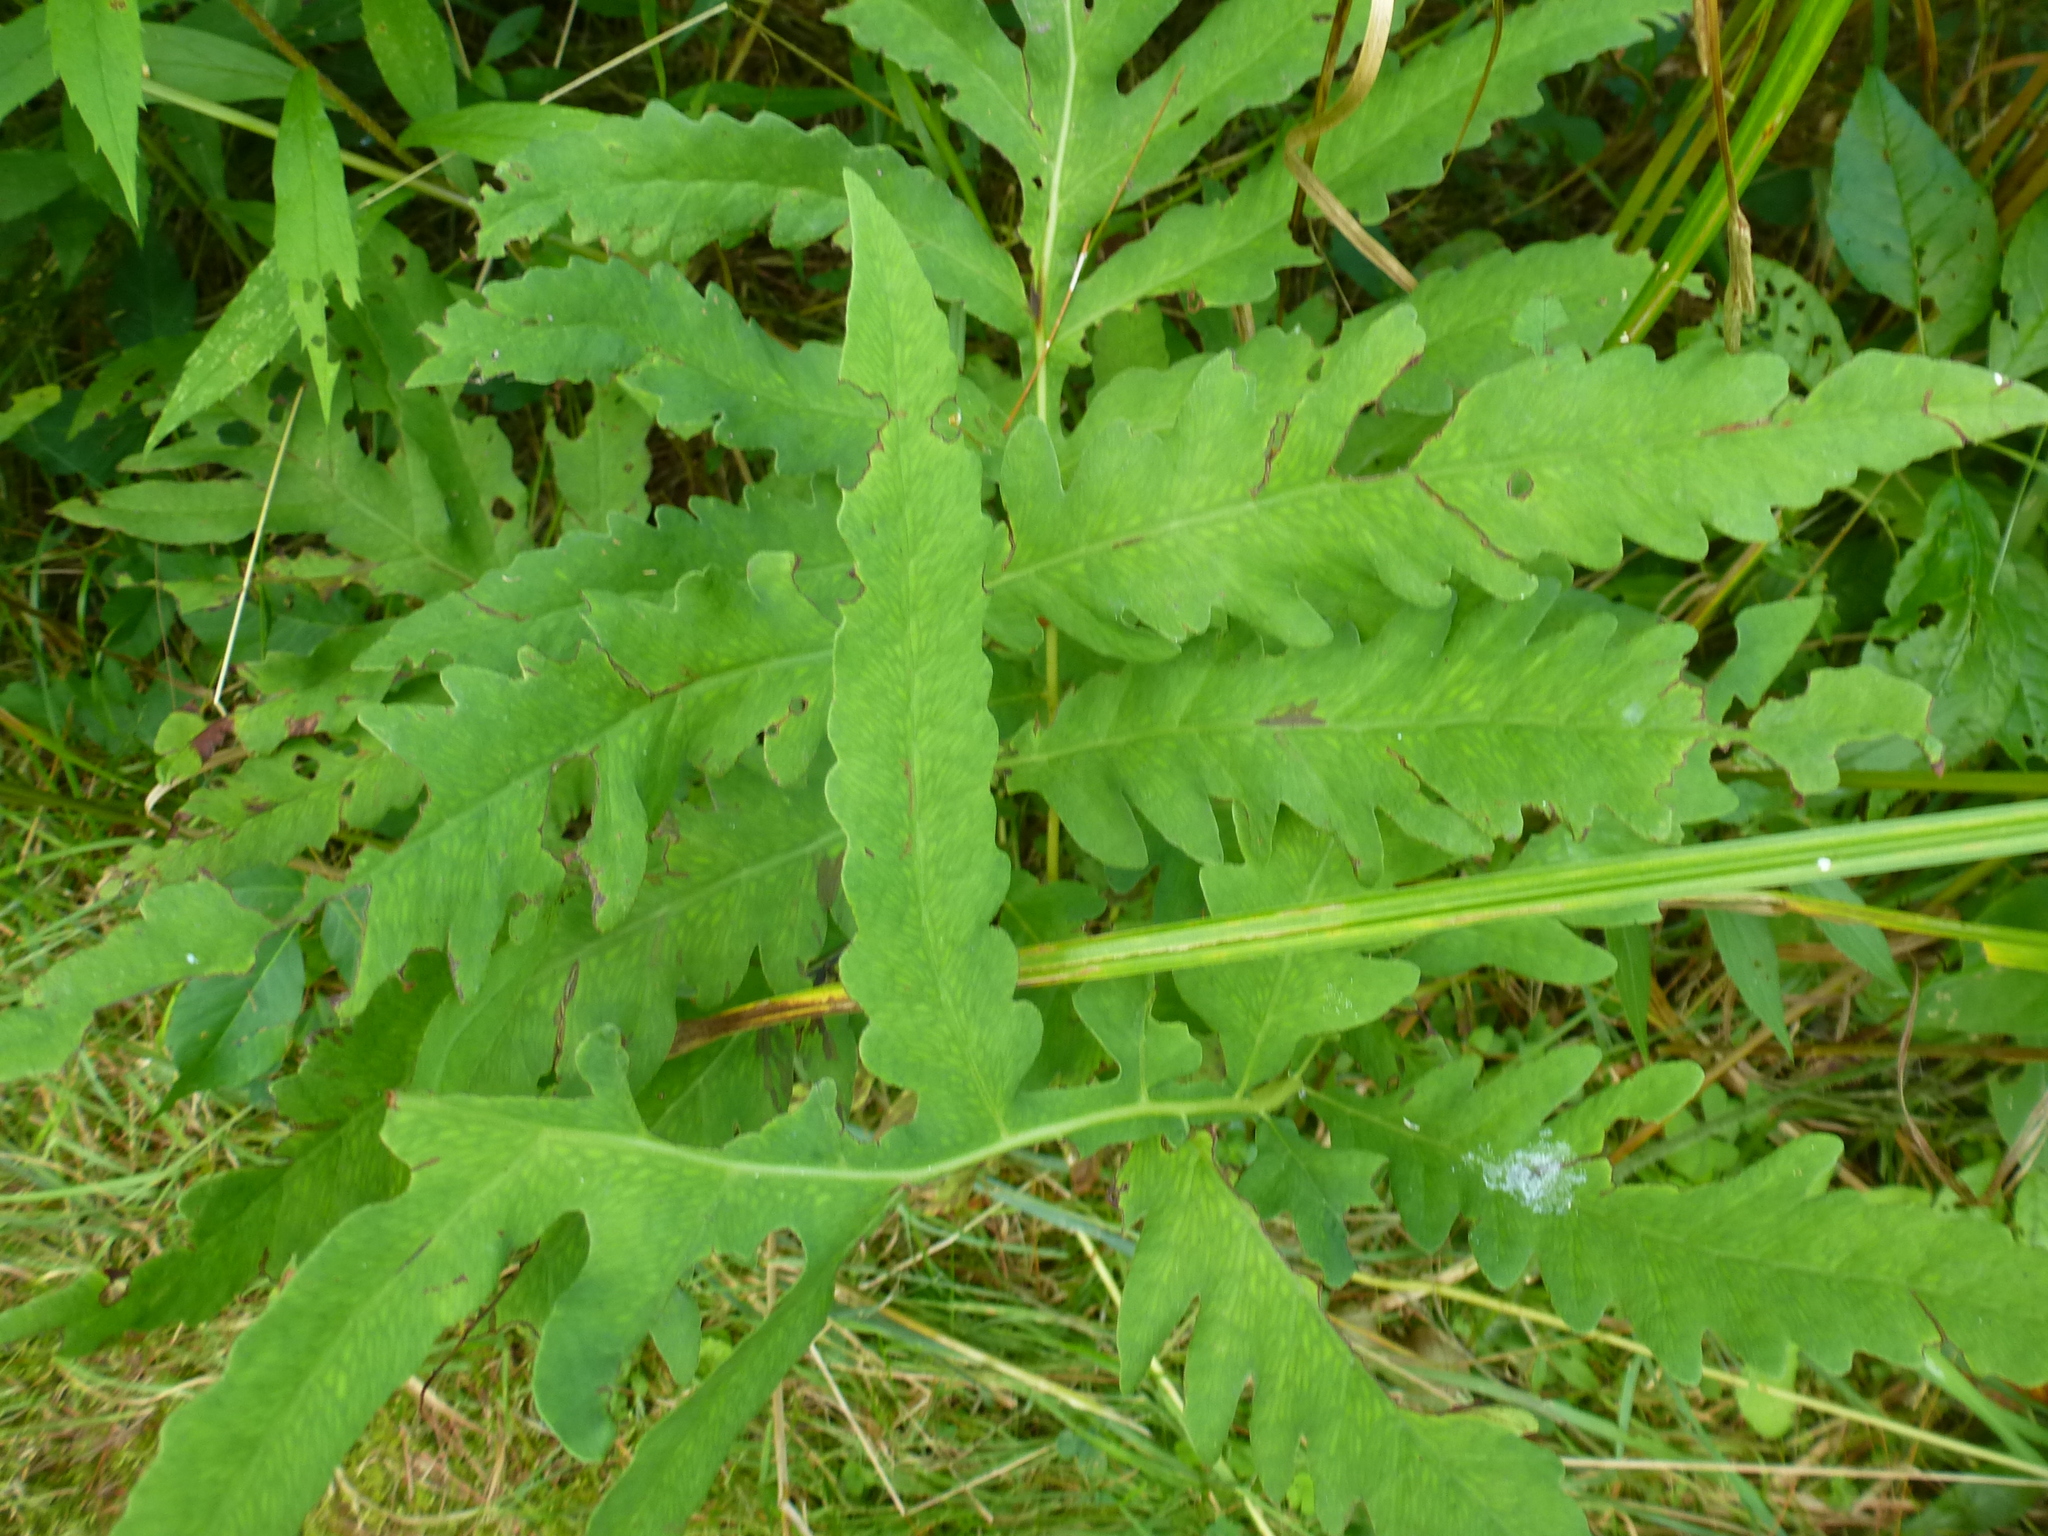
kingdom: Plantae
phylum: Tracheophyta
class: Polypodiopsida
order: Polypodiales
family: Onocleaceae
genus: Onoclea
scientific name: Onoclea sensibilis
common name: Sensitive fern
